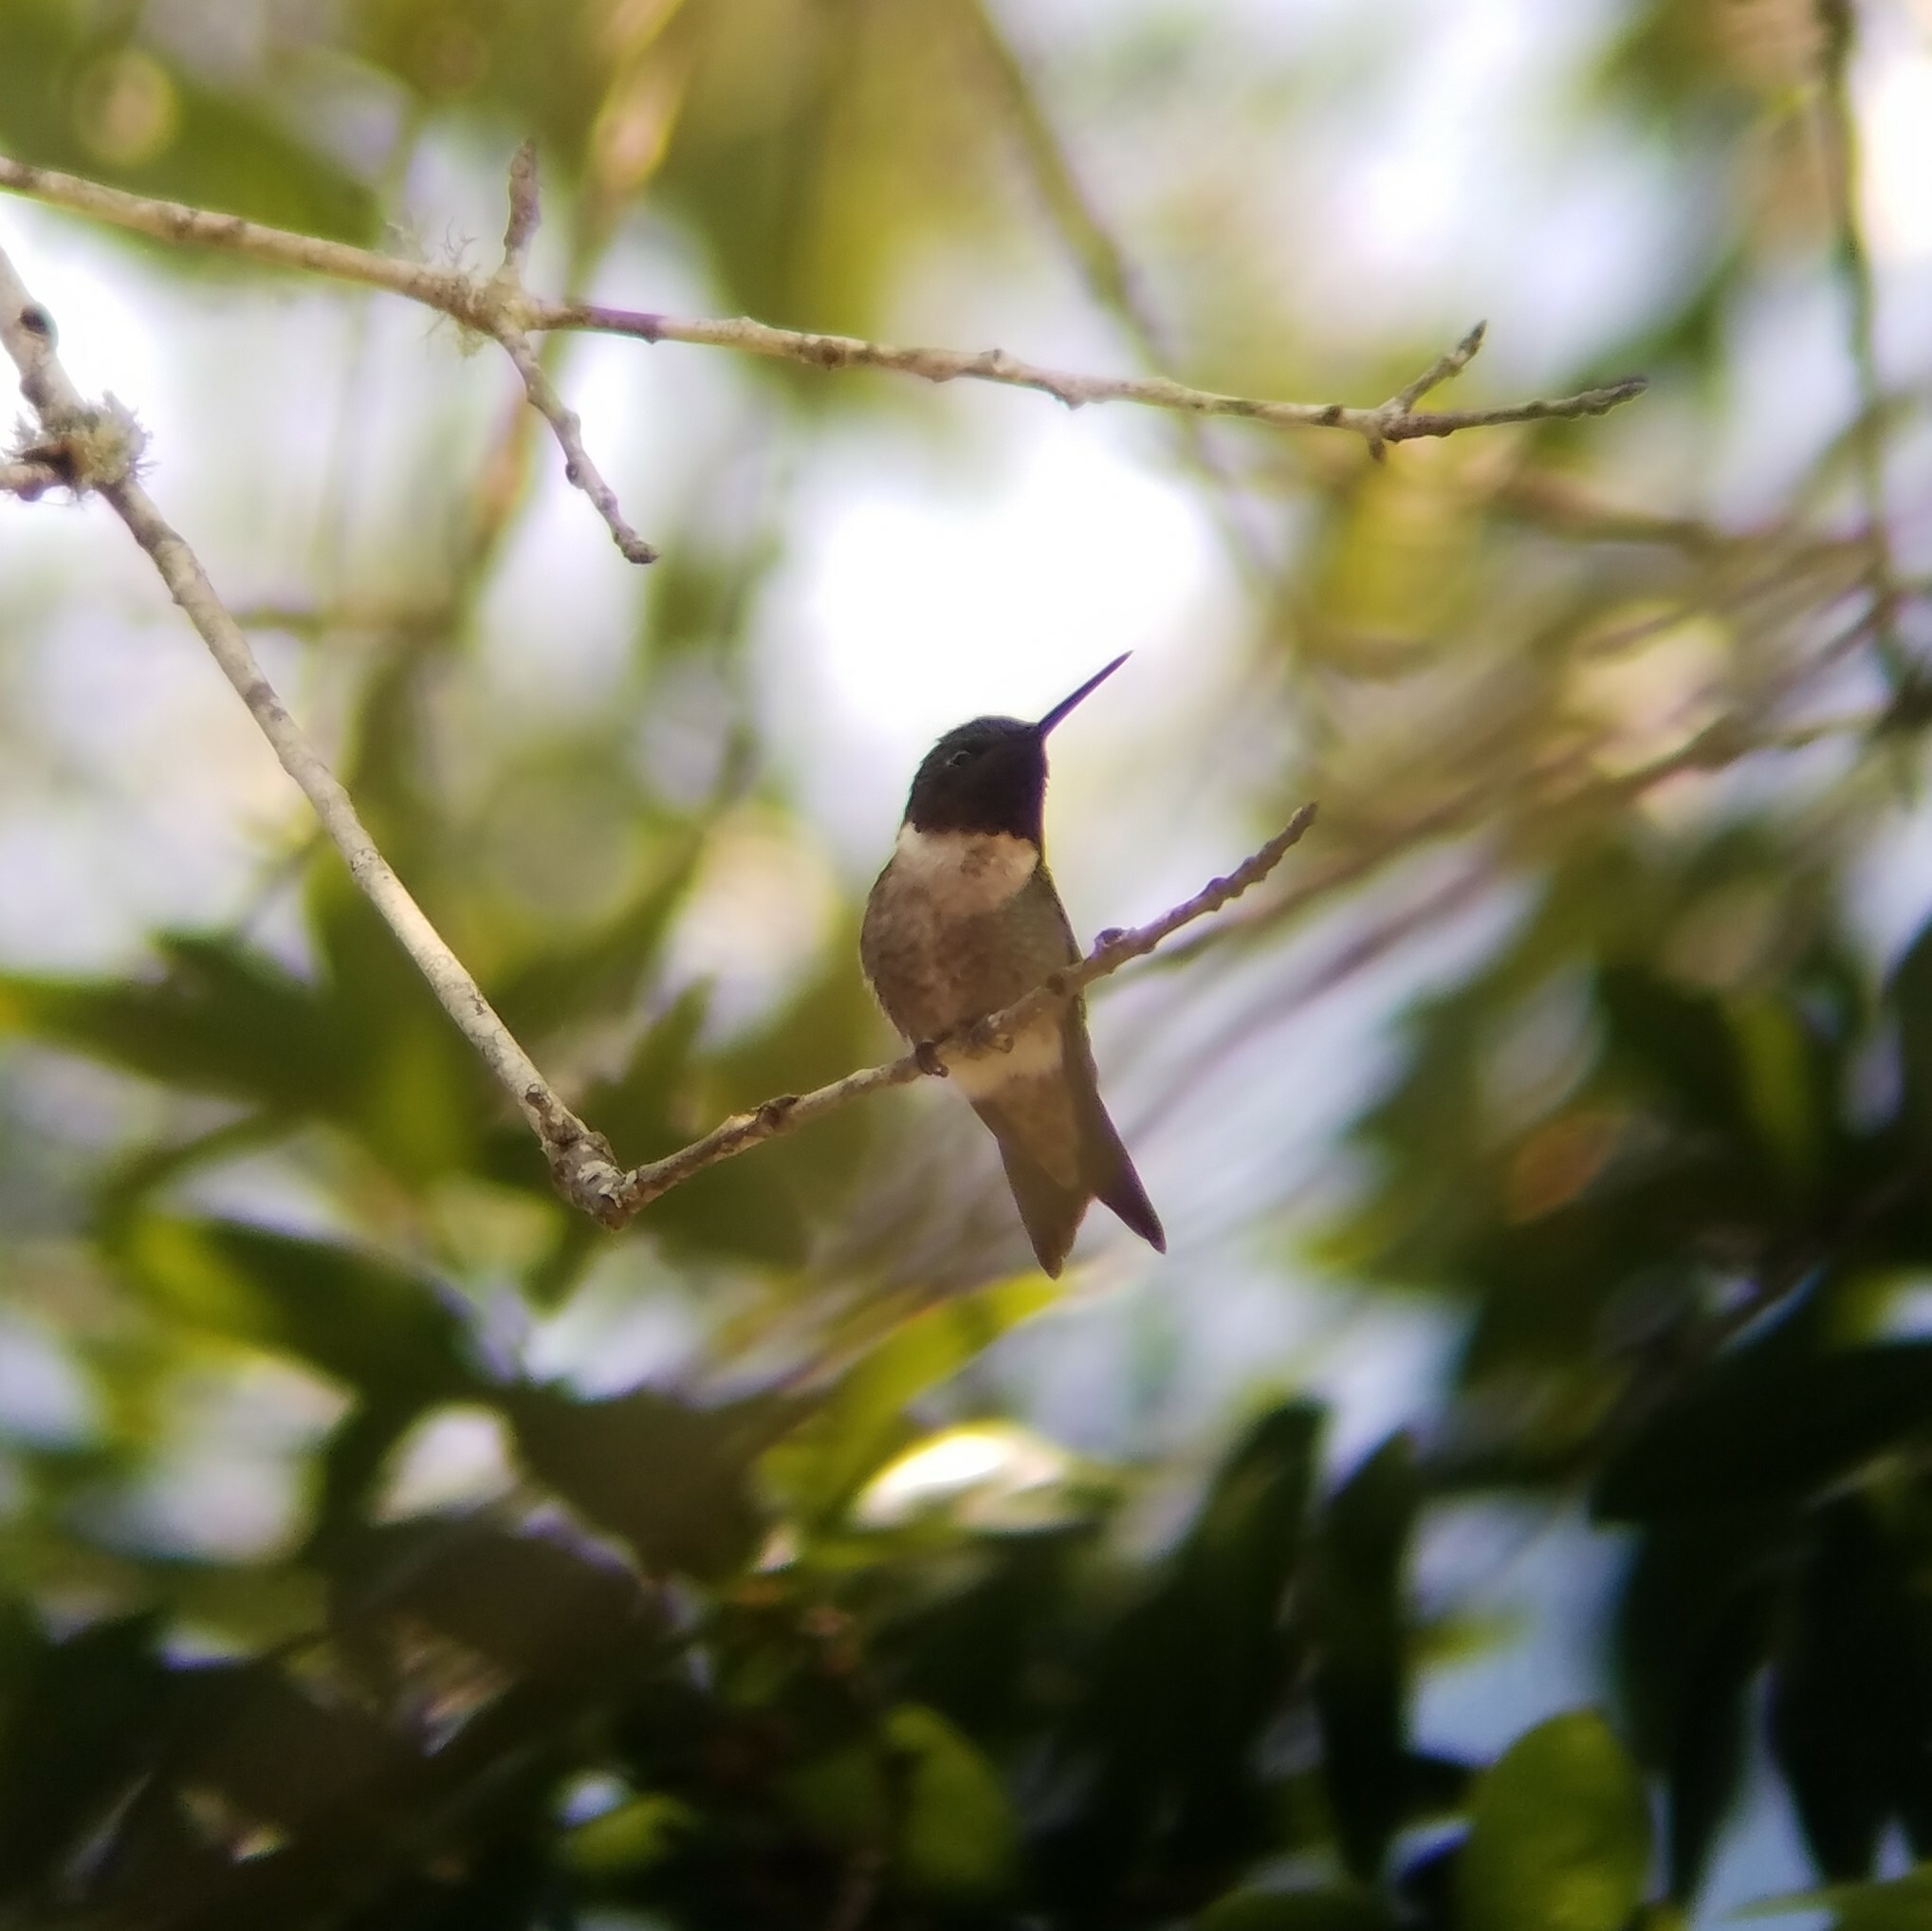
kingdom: Animalia
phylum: Chordata
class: Aves
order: Apodiformes
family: Trochilidae
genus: Archilochus
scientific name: Archilochus colubris
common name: Ruby-throated hummingbird
